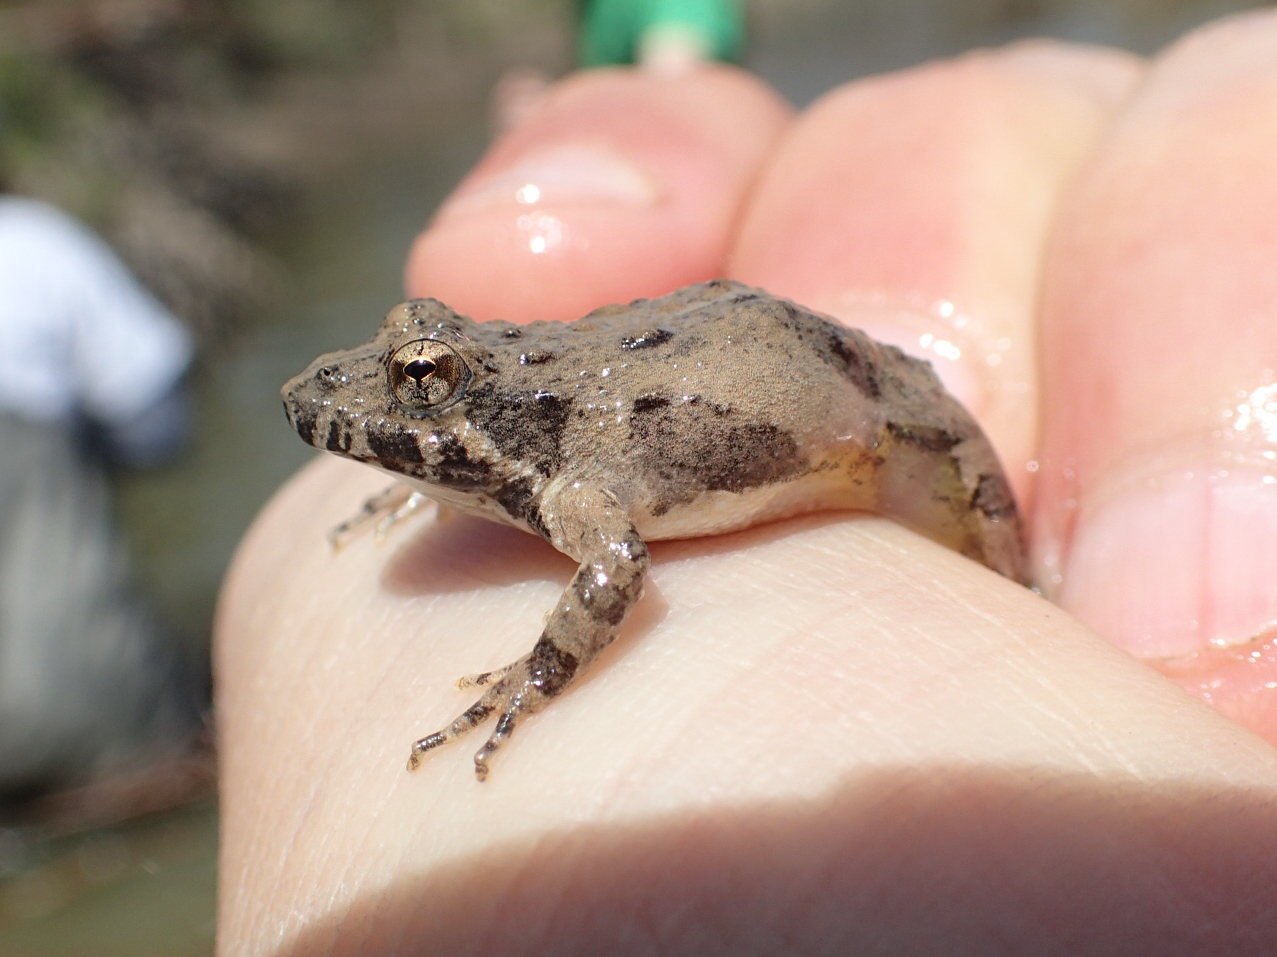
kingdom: Animalia
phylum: Chordata
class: Amphibia
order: Anura
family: Hylidae
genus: Acris
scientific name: Acris blanchardi
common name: Blanchard's cricket frog
